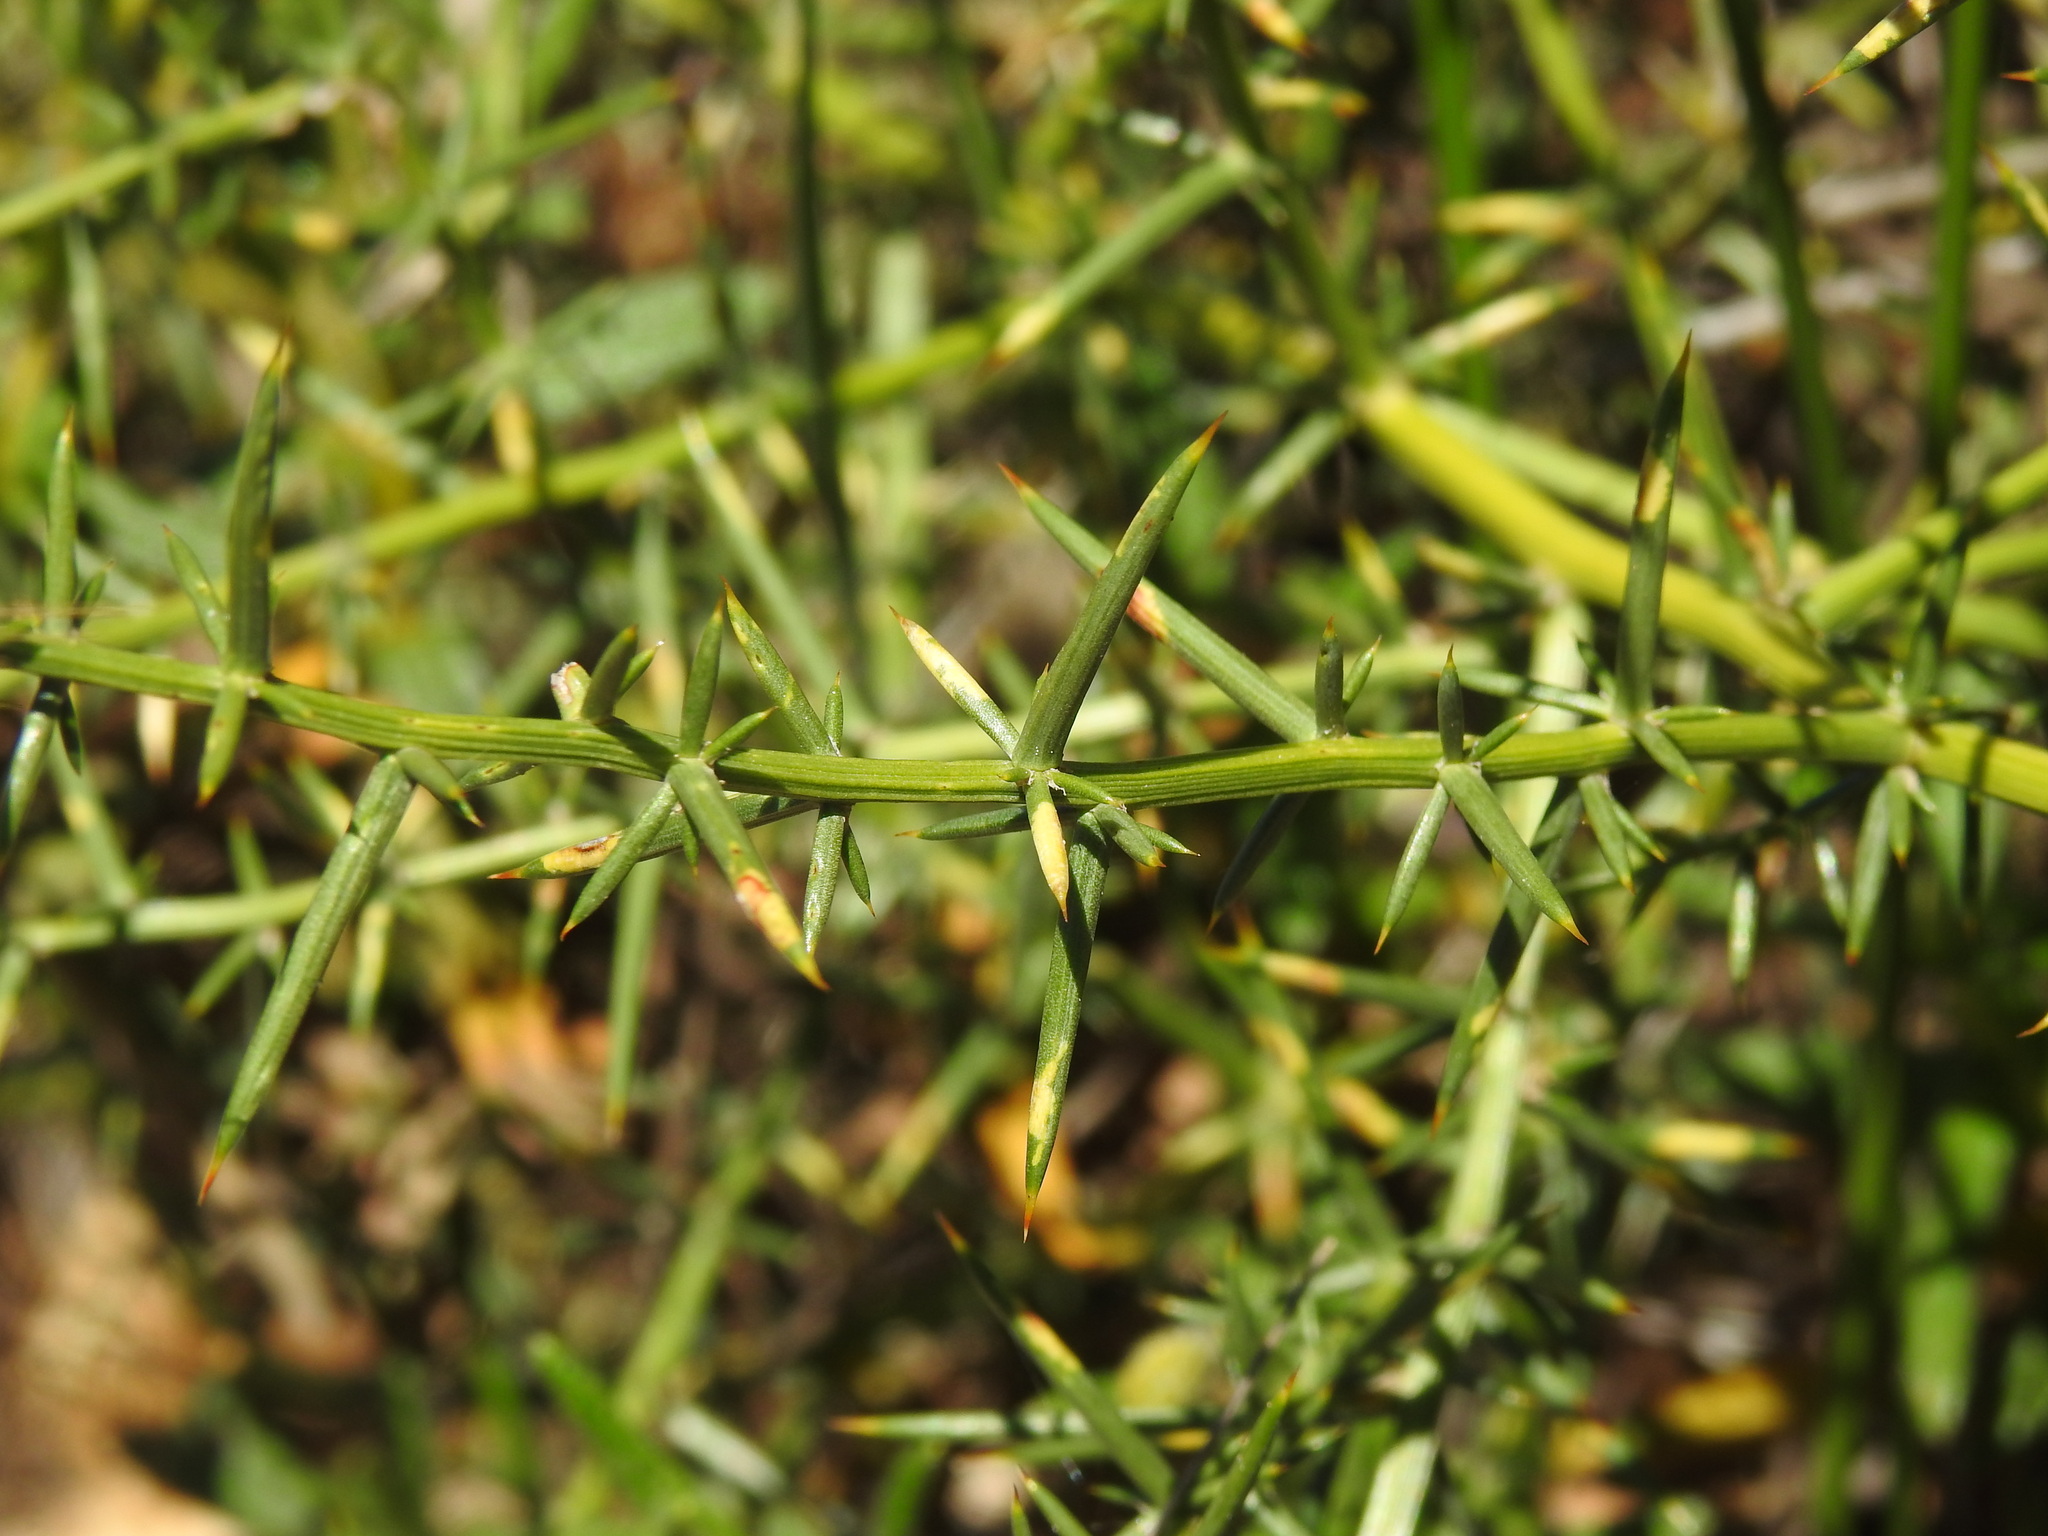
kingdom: Plantae
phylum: Tracheophyta
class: Liliopsida
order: Asparagales
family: Asparagaceae
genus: Asparagus
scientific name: Asparagus aphyllus
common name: Mediterranean asparagus
